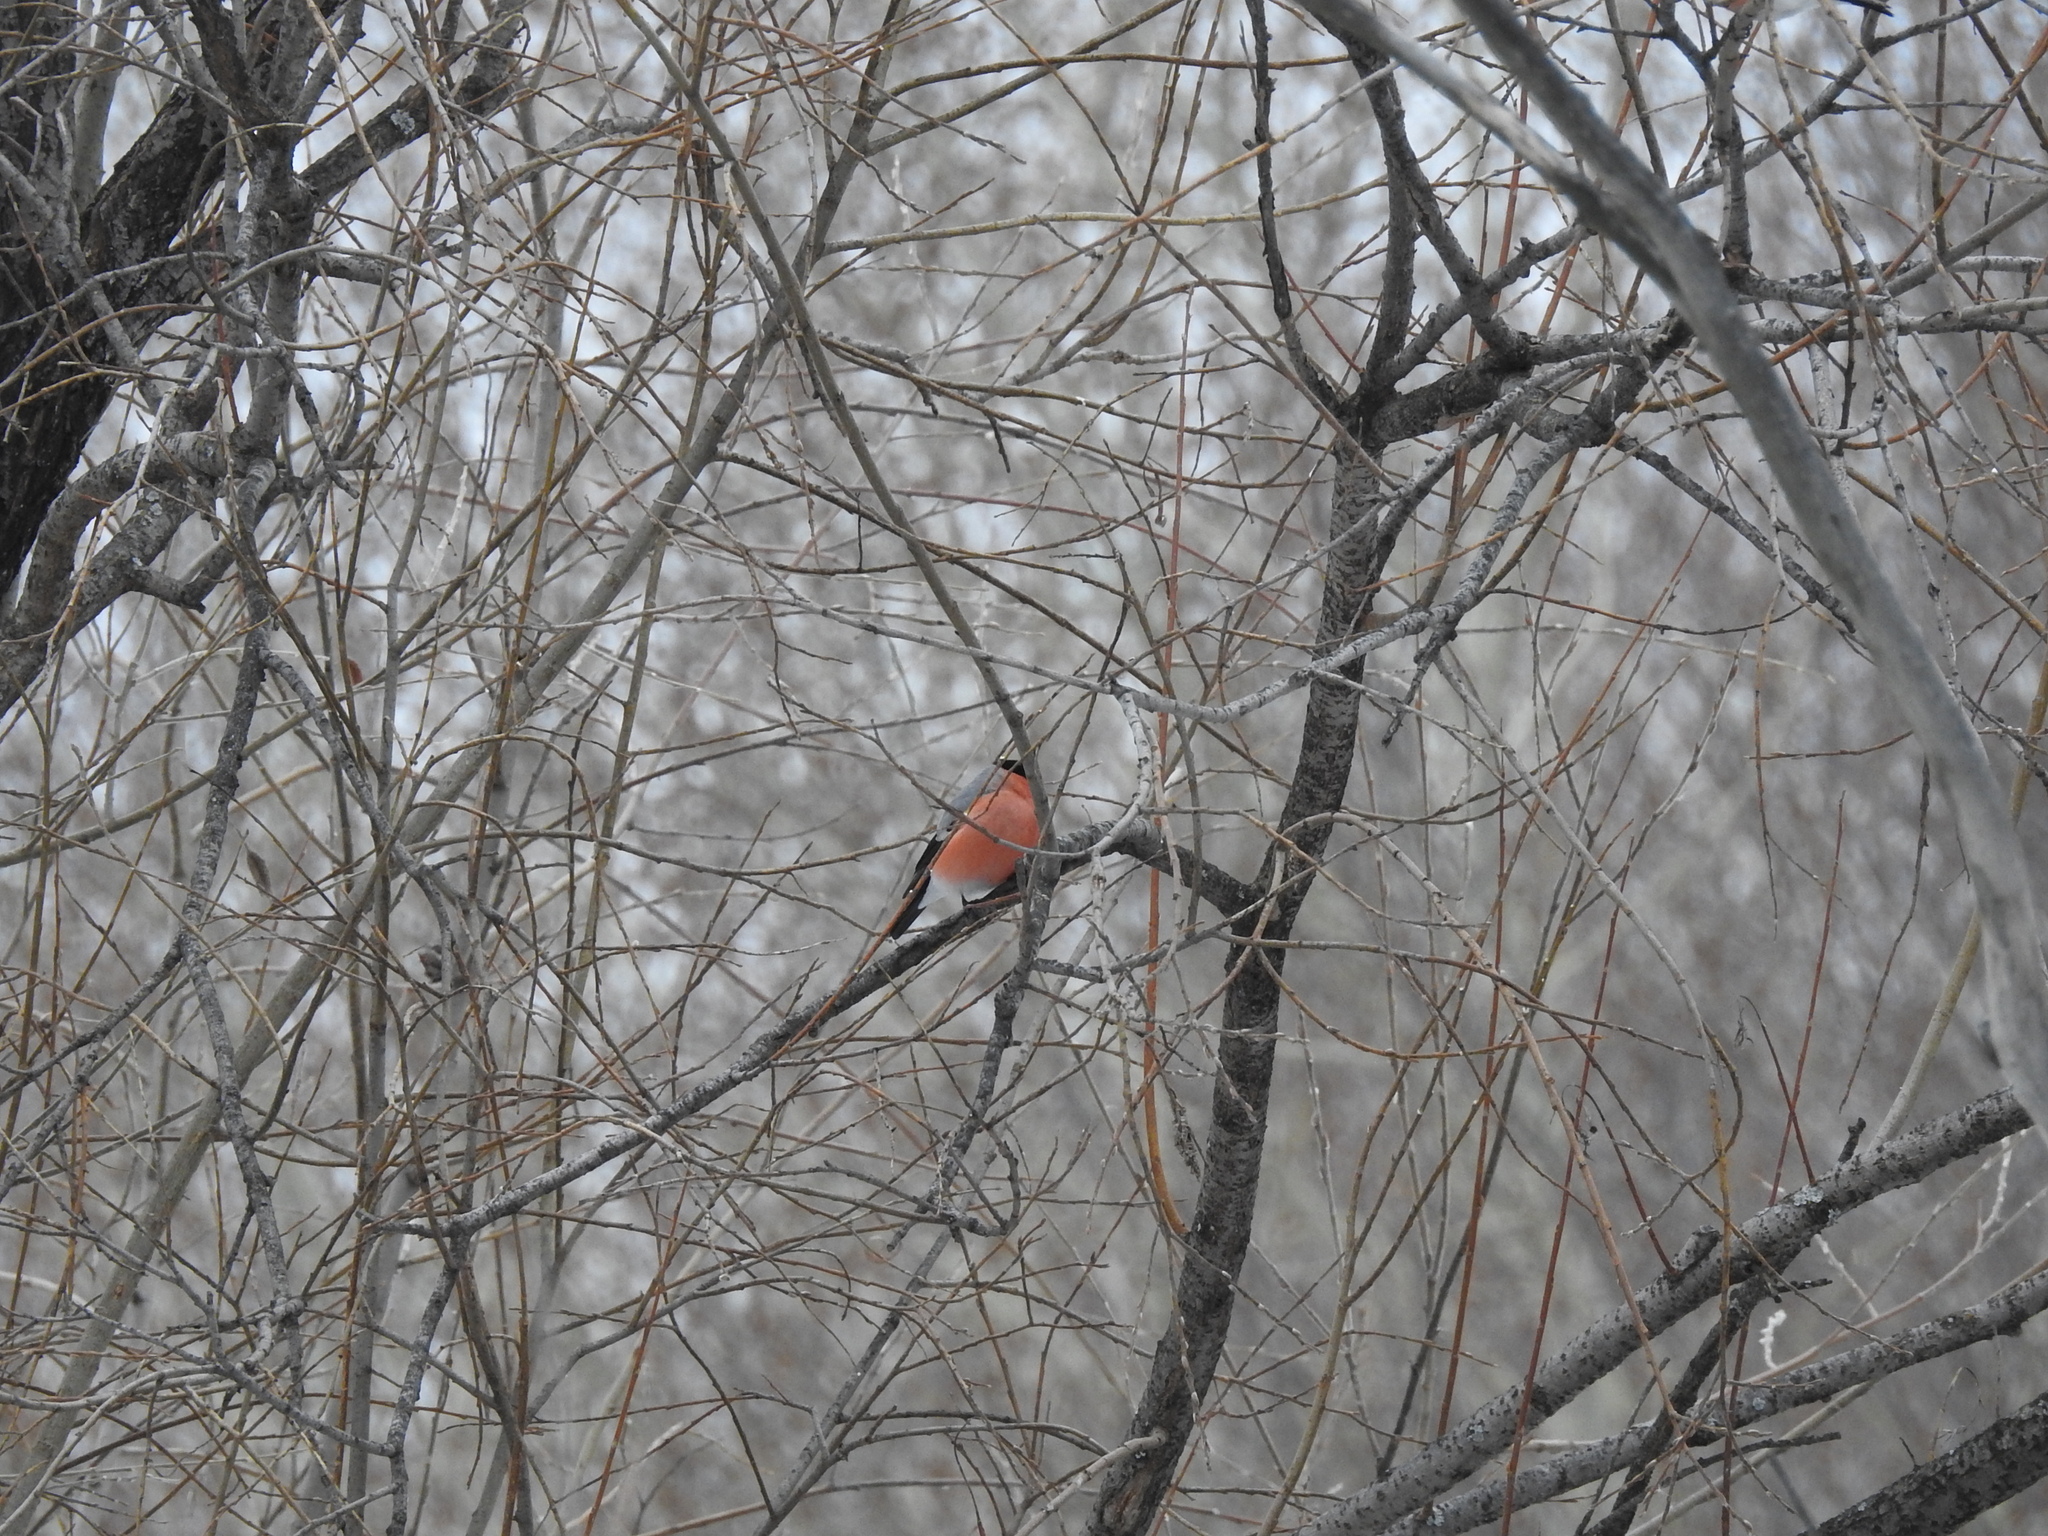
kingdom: Animalia
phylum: Chordata
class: Aves
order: Passeriformes
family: Fringillidae
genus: Pyrrhula
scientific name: Pyrrhula pyrrhula
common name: Eurasian bullfinch
